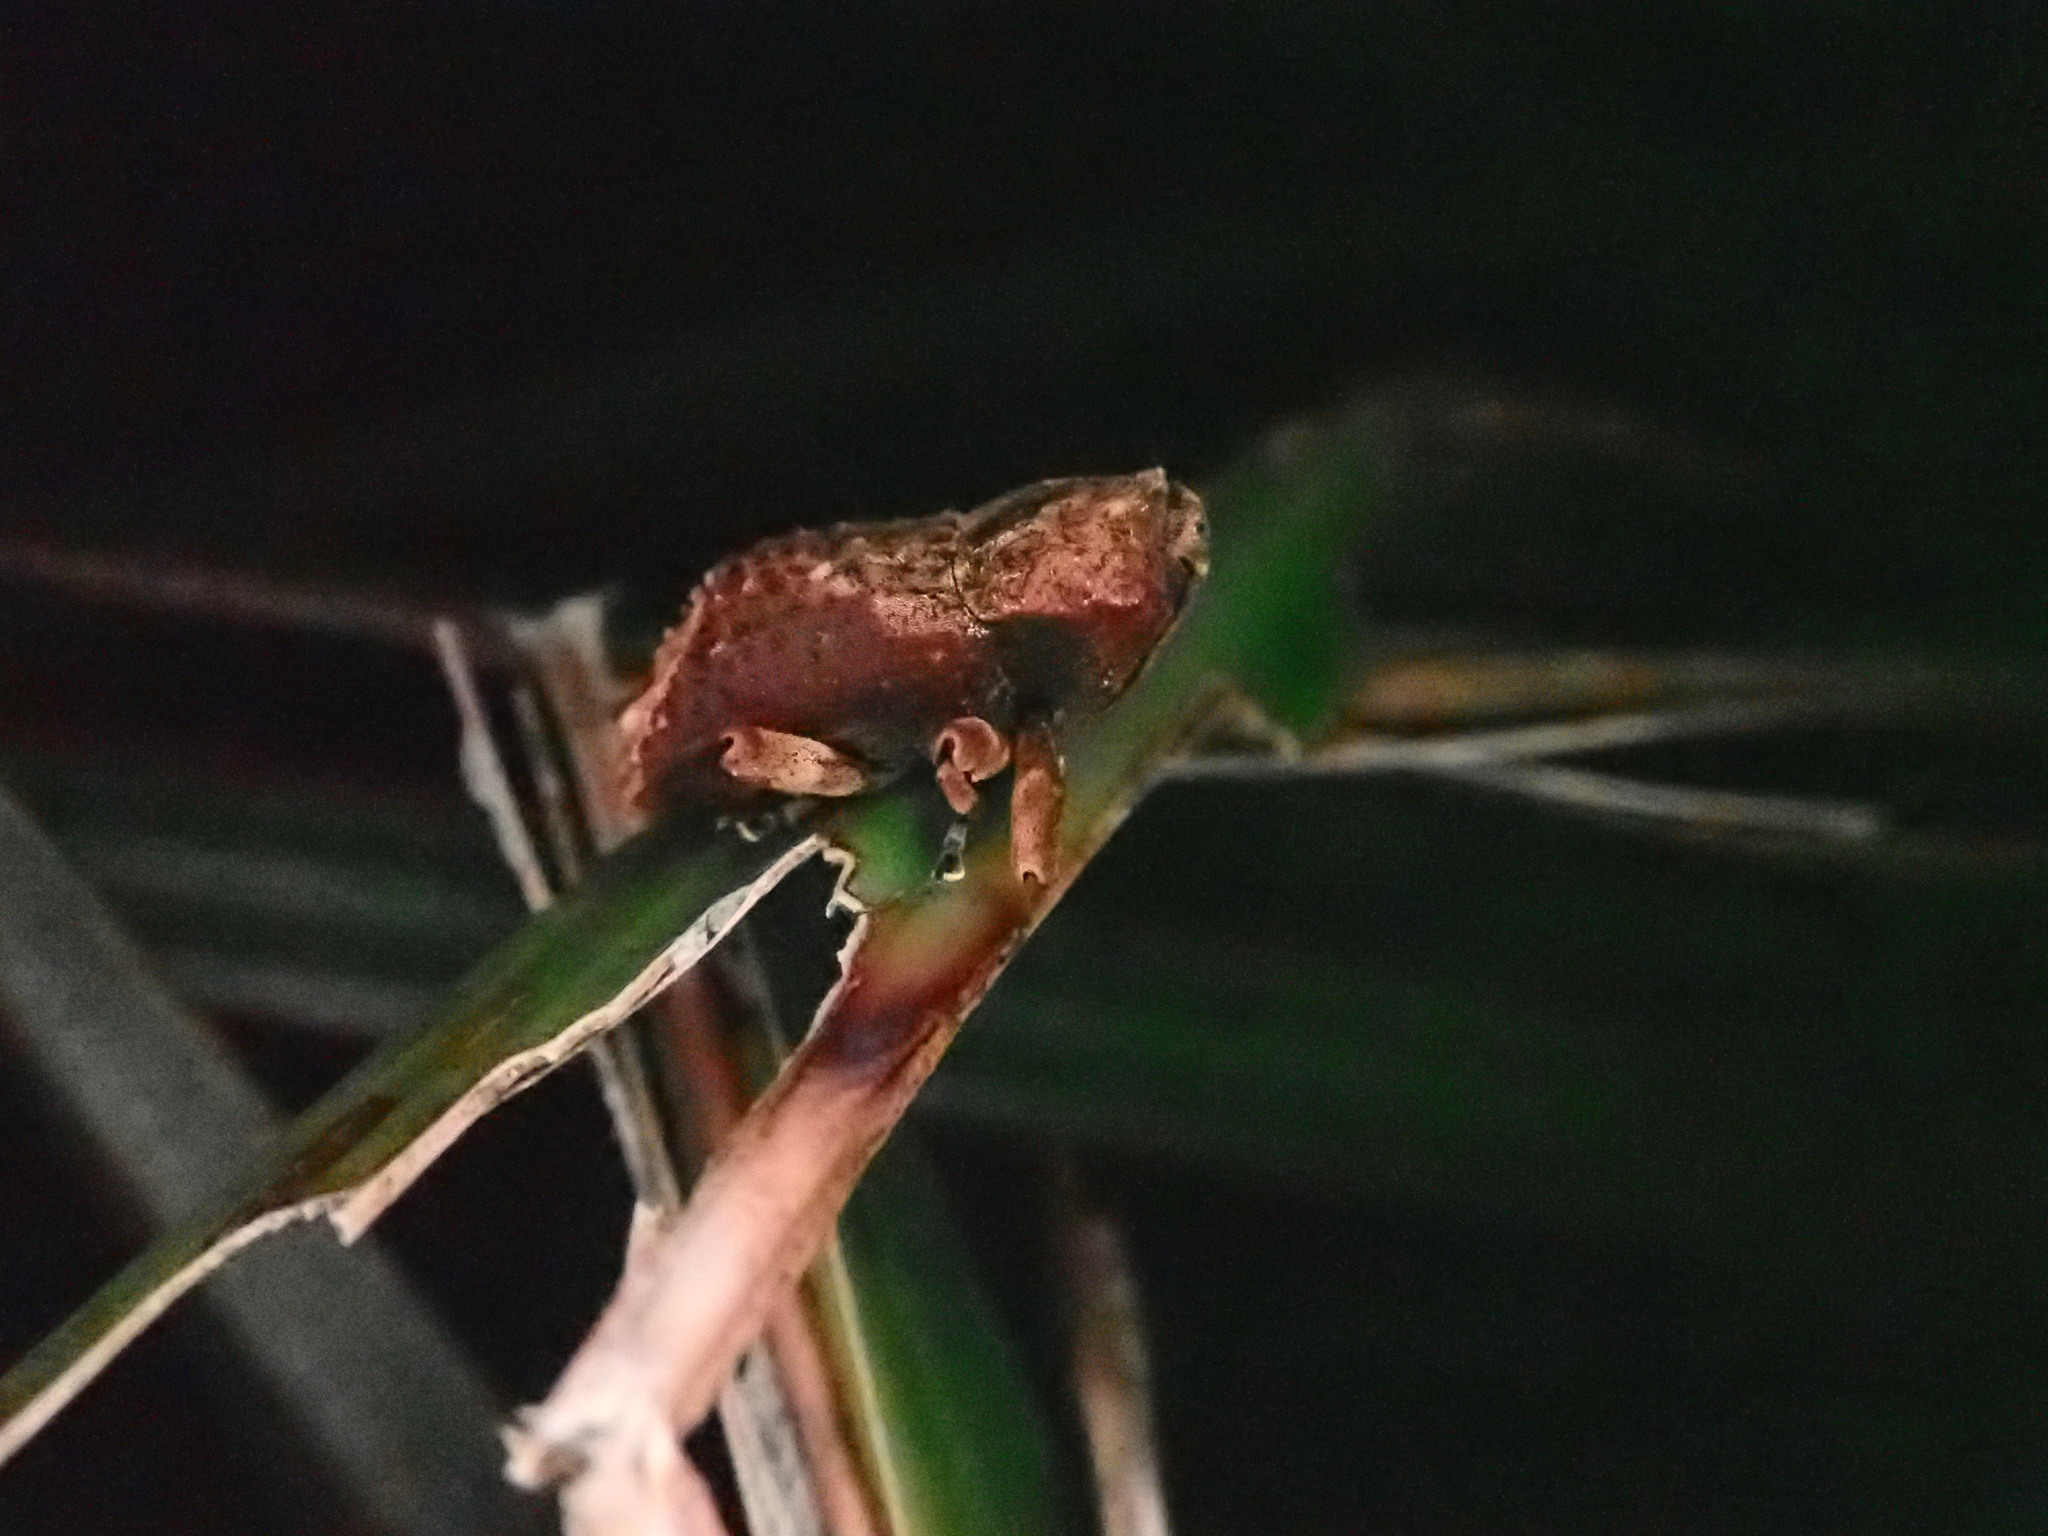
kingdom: Animalia
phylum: Arthropoda
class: Insecta
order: Coleoptera
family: Curculionidae
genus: Ectopsis
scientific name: Ectopsis ferrugalis
